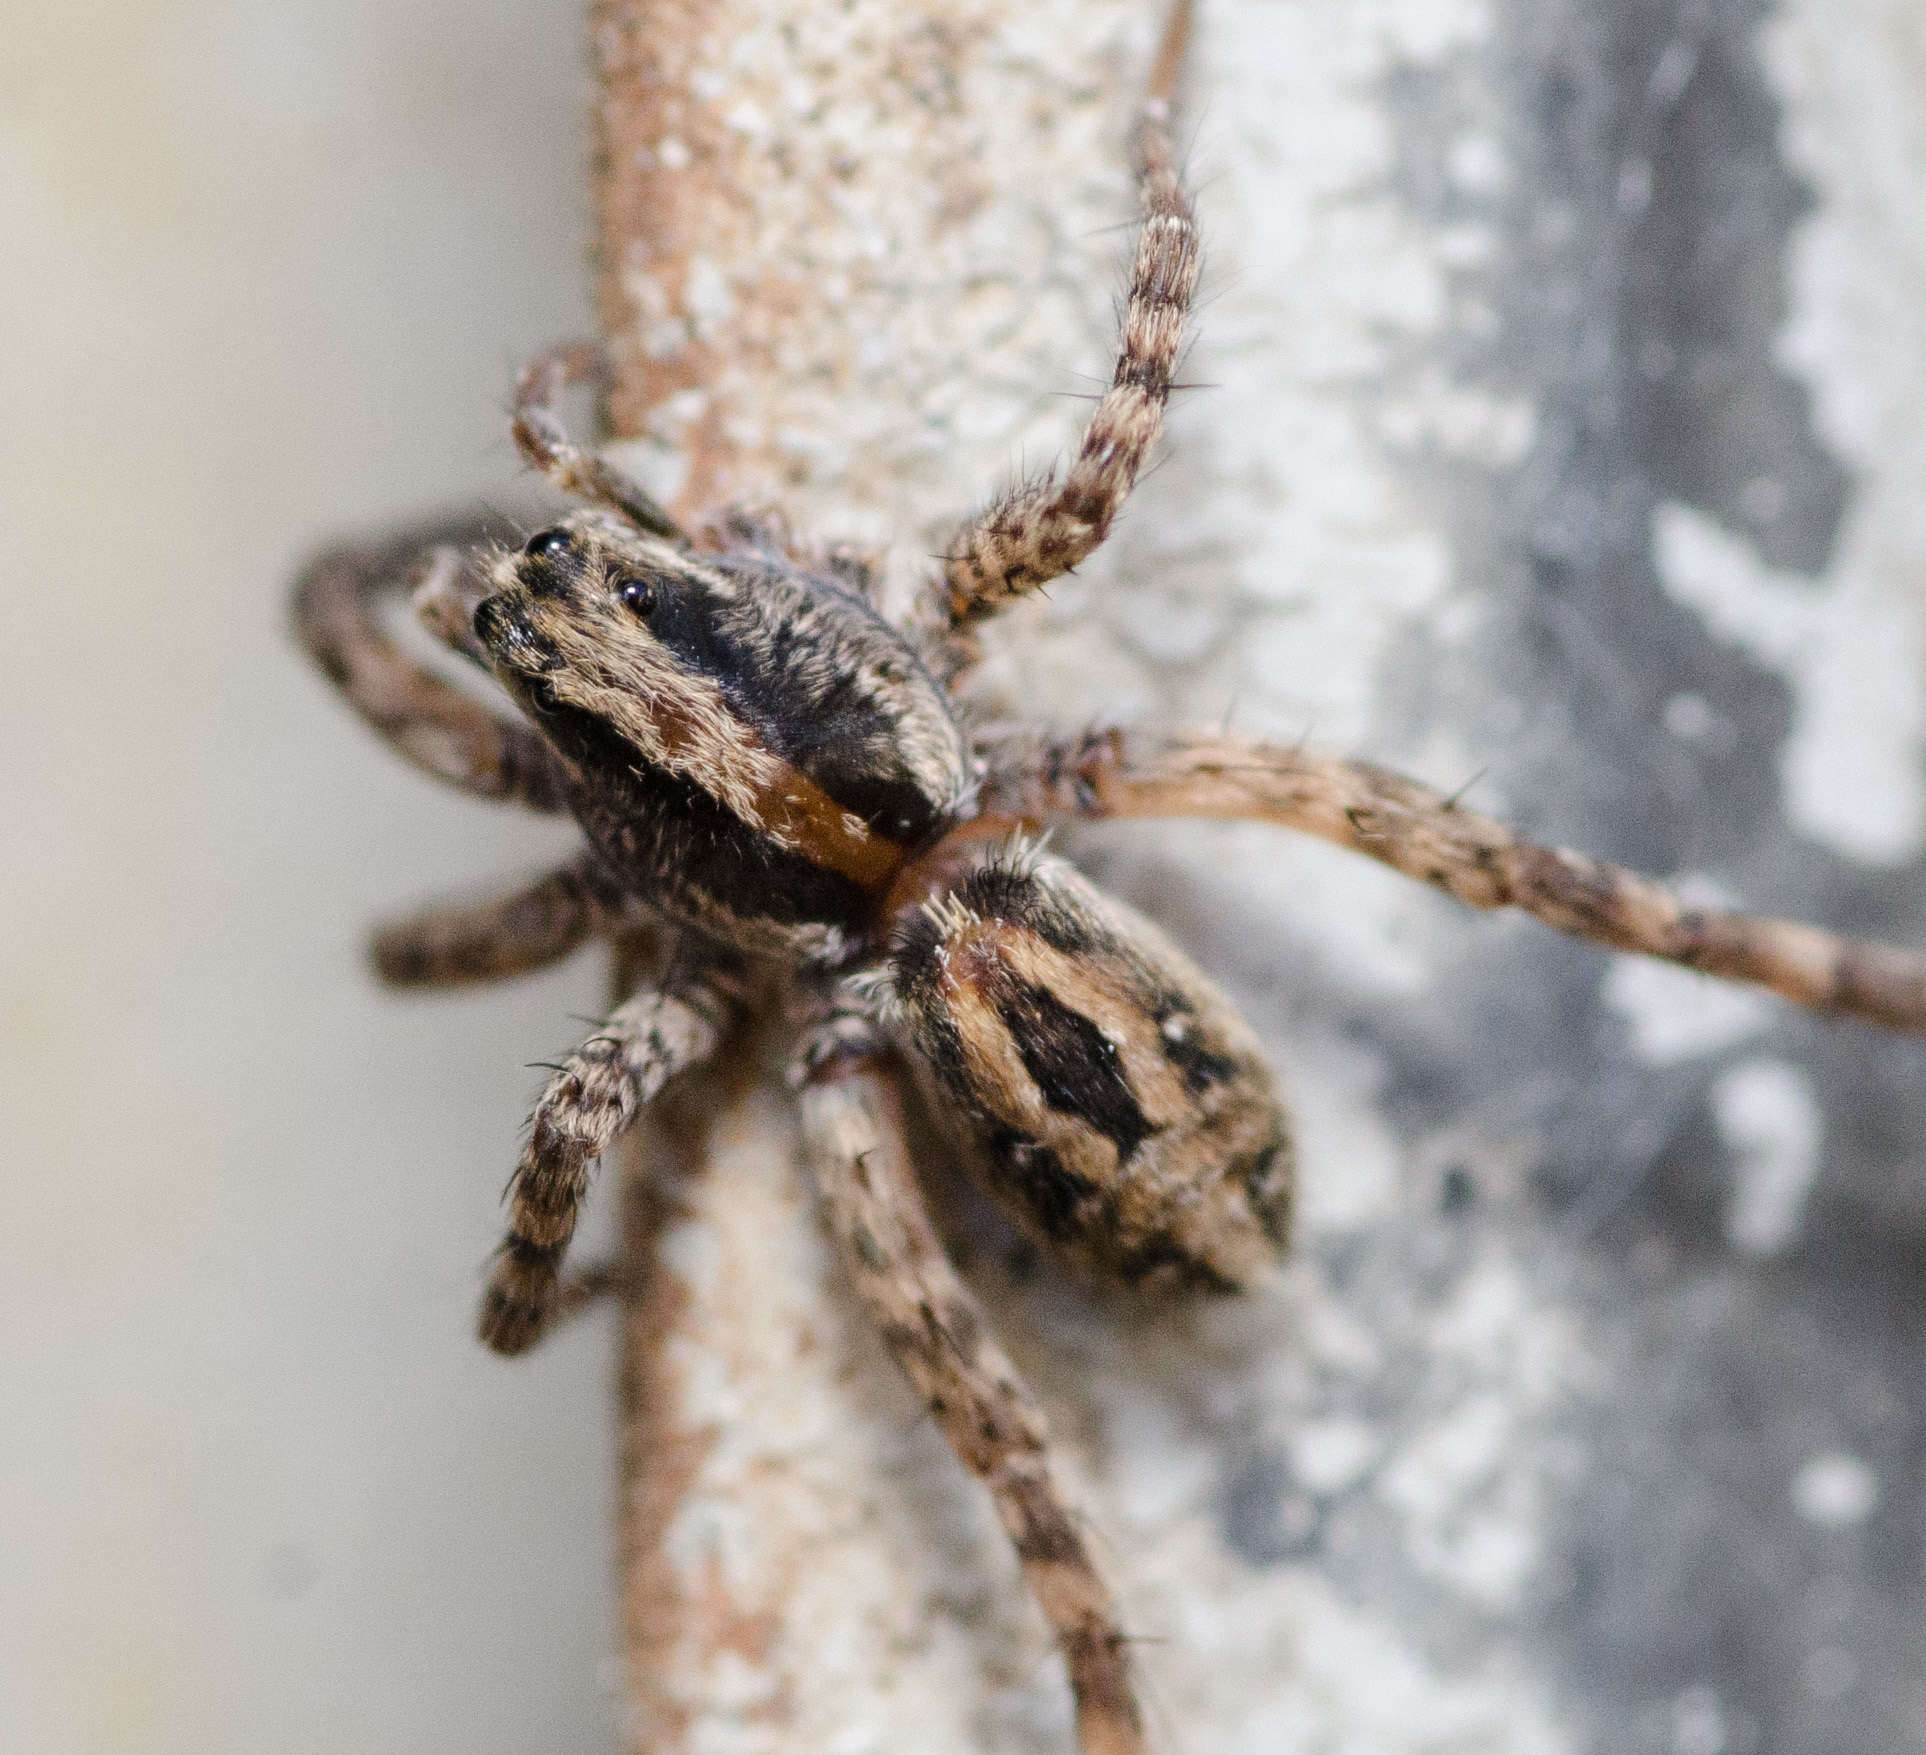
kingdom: Animalia
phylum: Arthropoda
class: Arachnida
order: Araneae
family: Lycosidae
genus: Schizocosa
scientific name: Schizocosa avida
